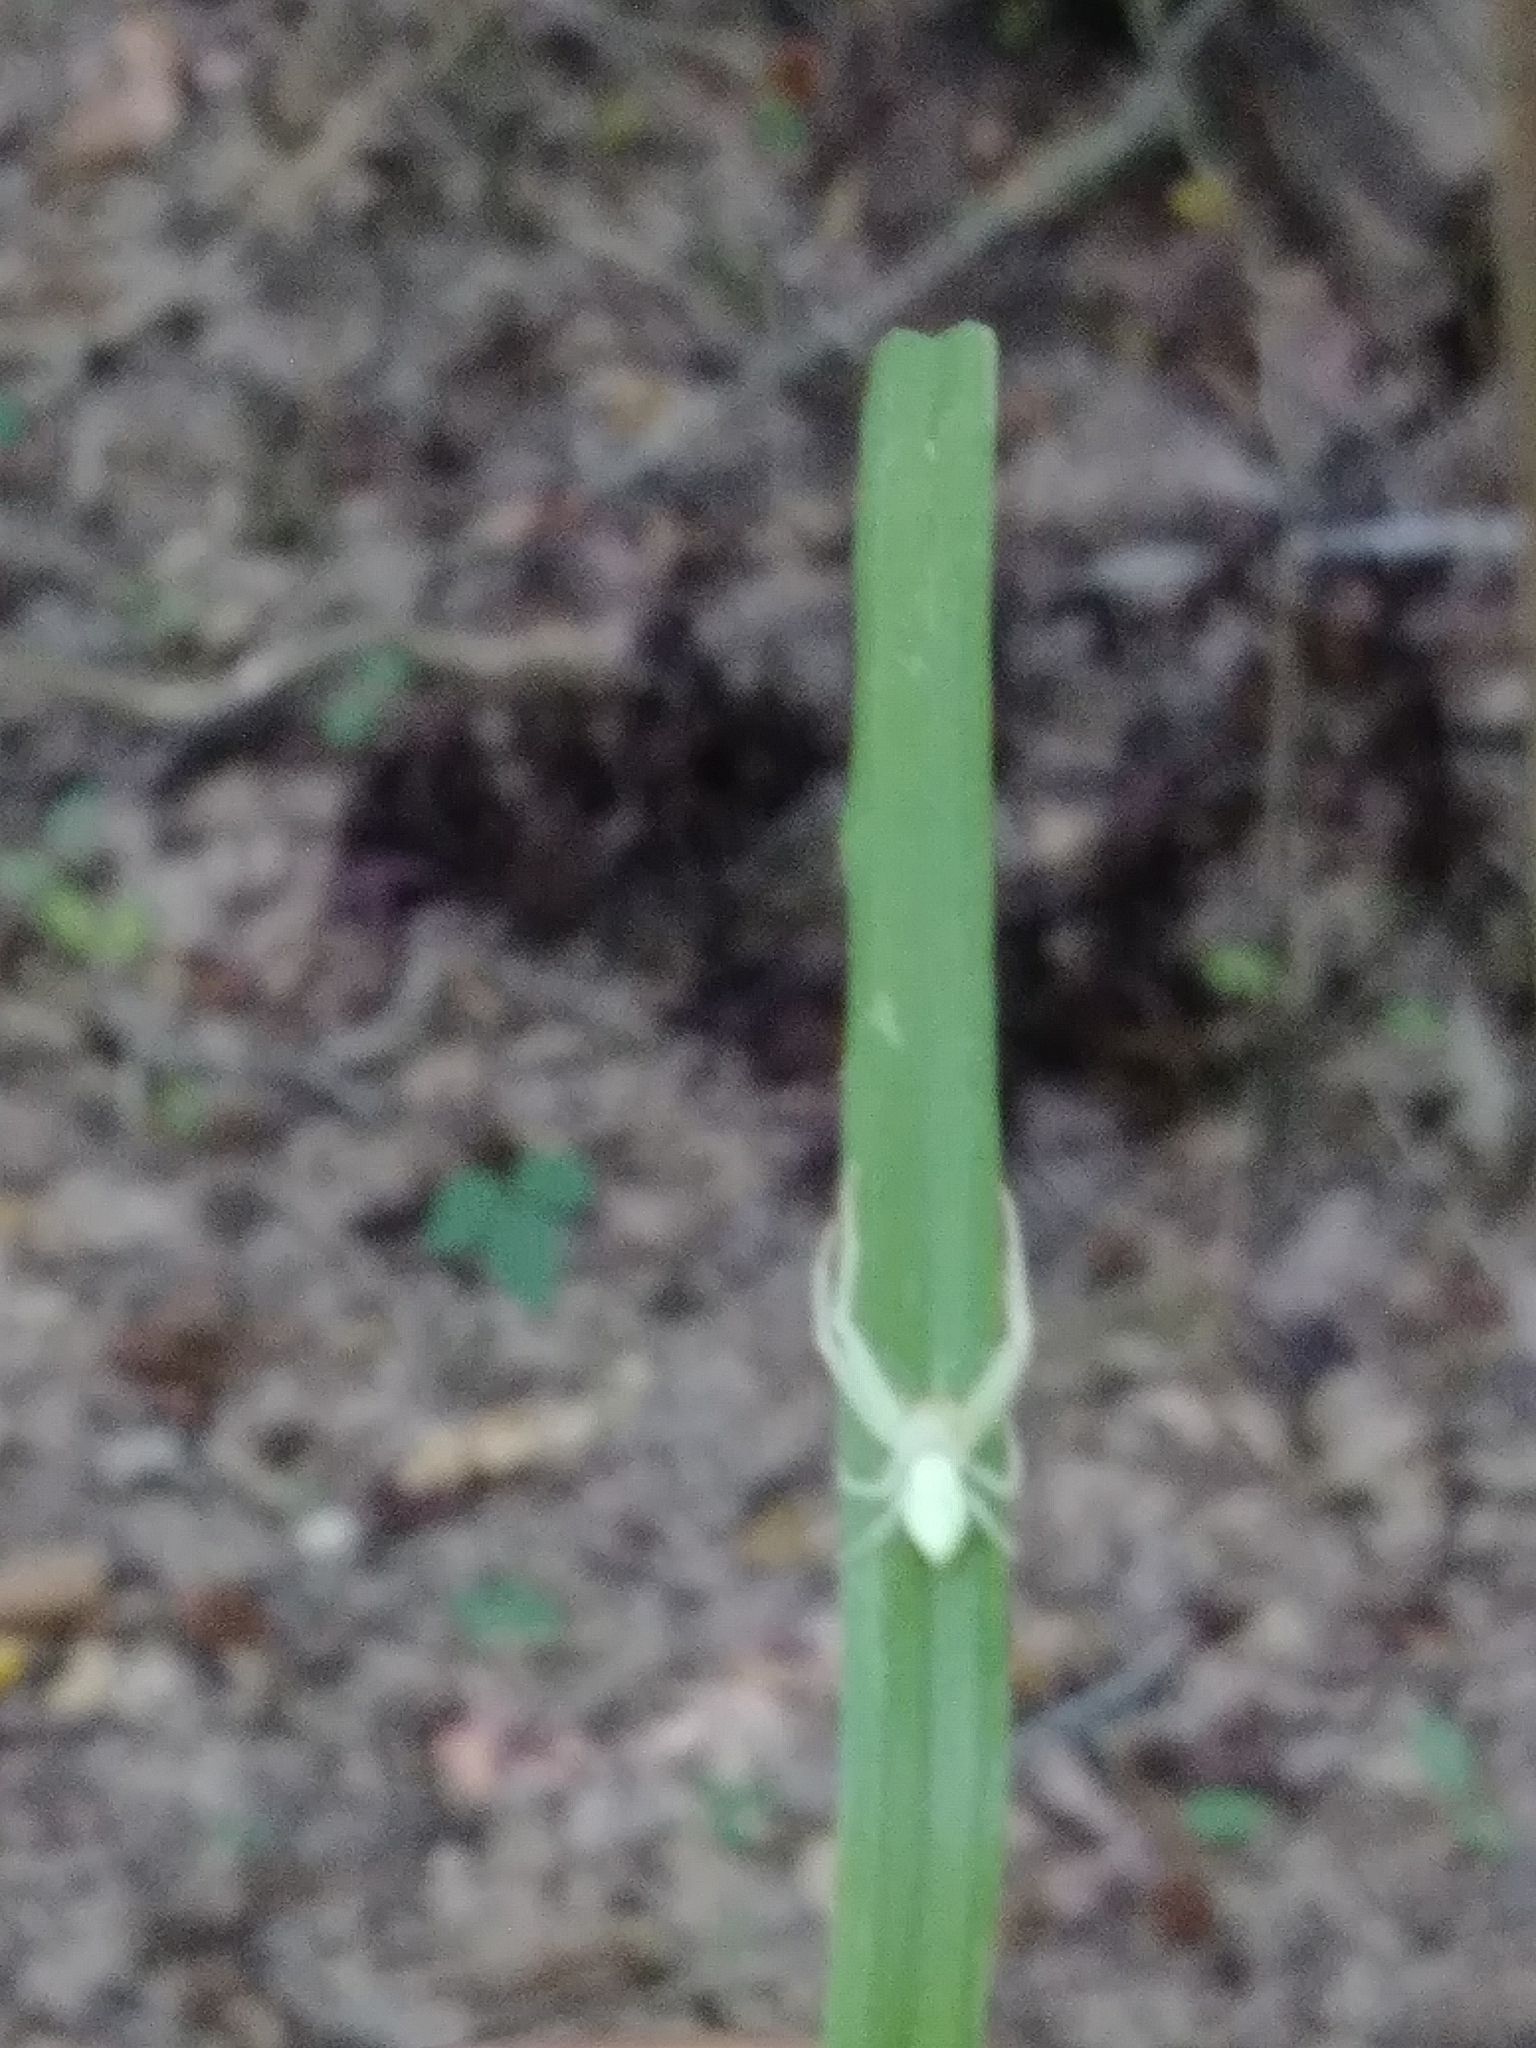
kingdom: Animalia
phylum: Arthropoda
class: Arachnida
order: Araneae
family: Thomisidae
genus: Misumessus
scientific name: Misumessus oblongus
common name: American green crab spider
